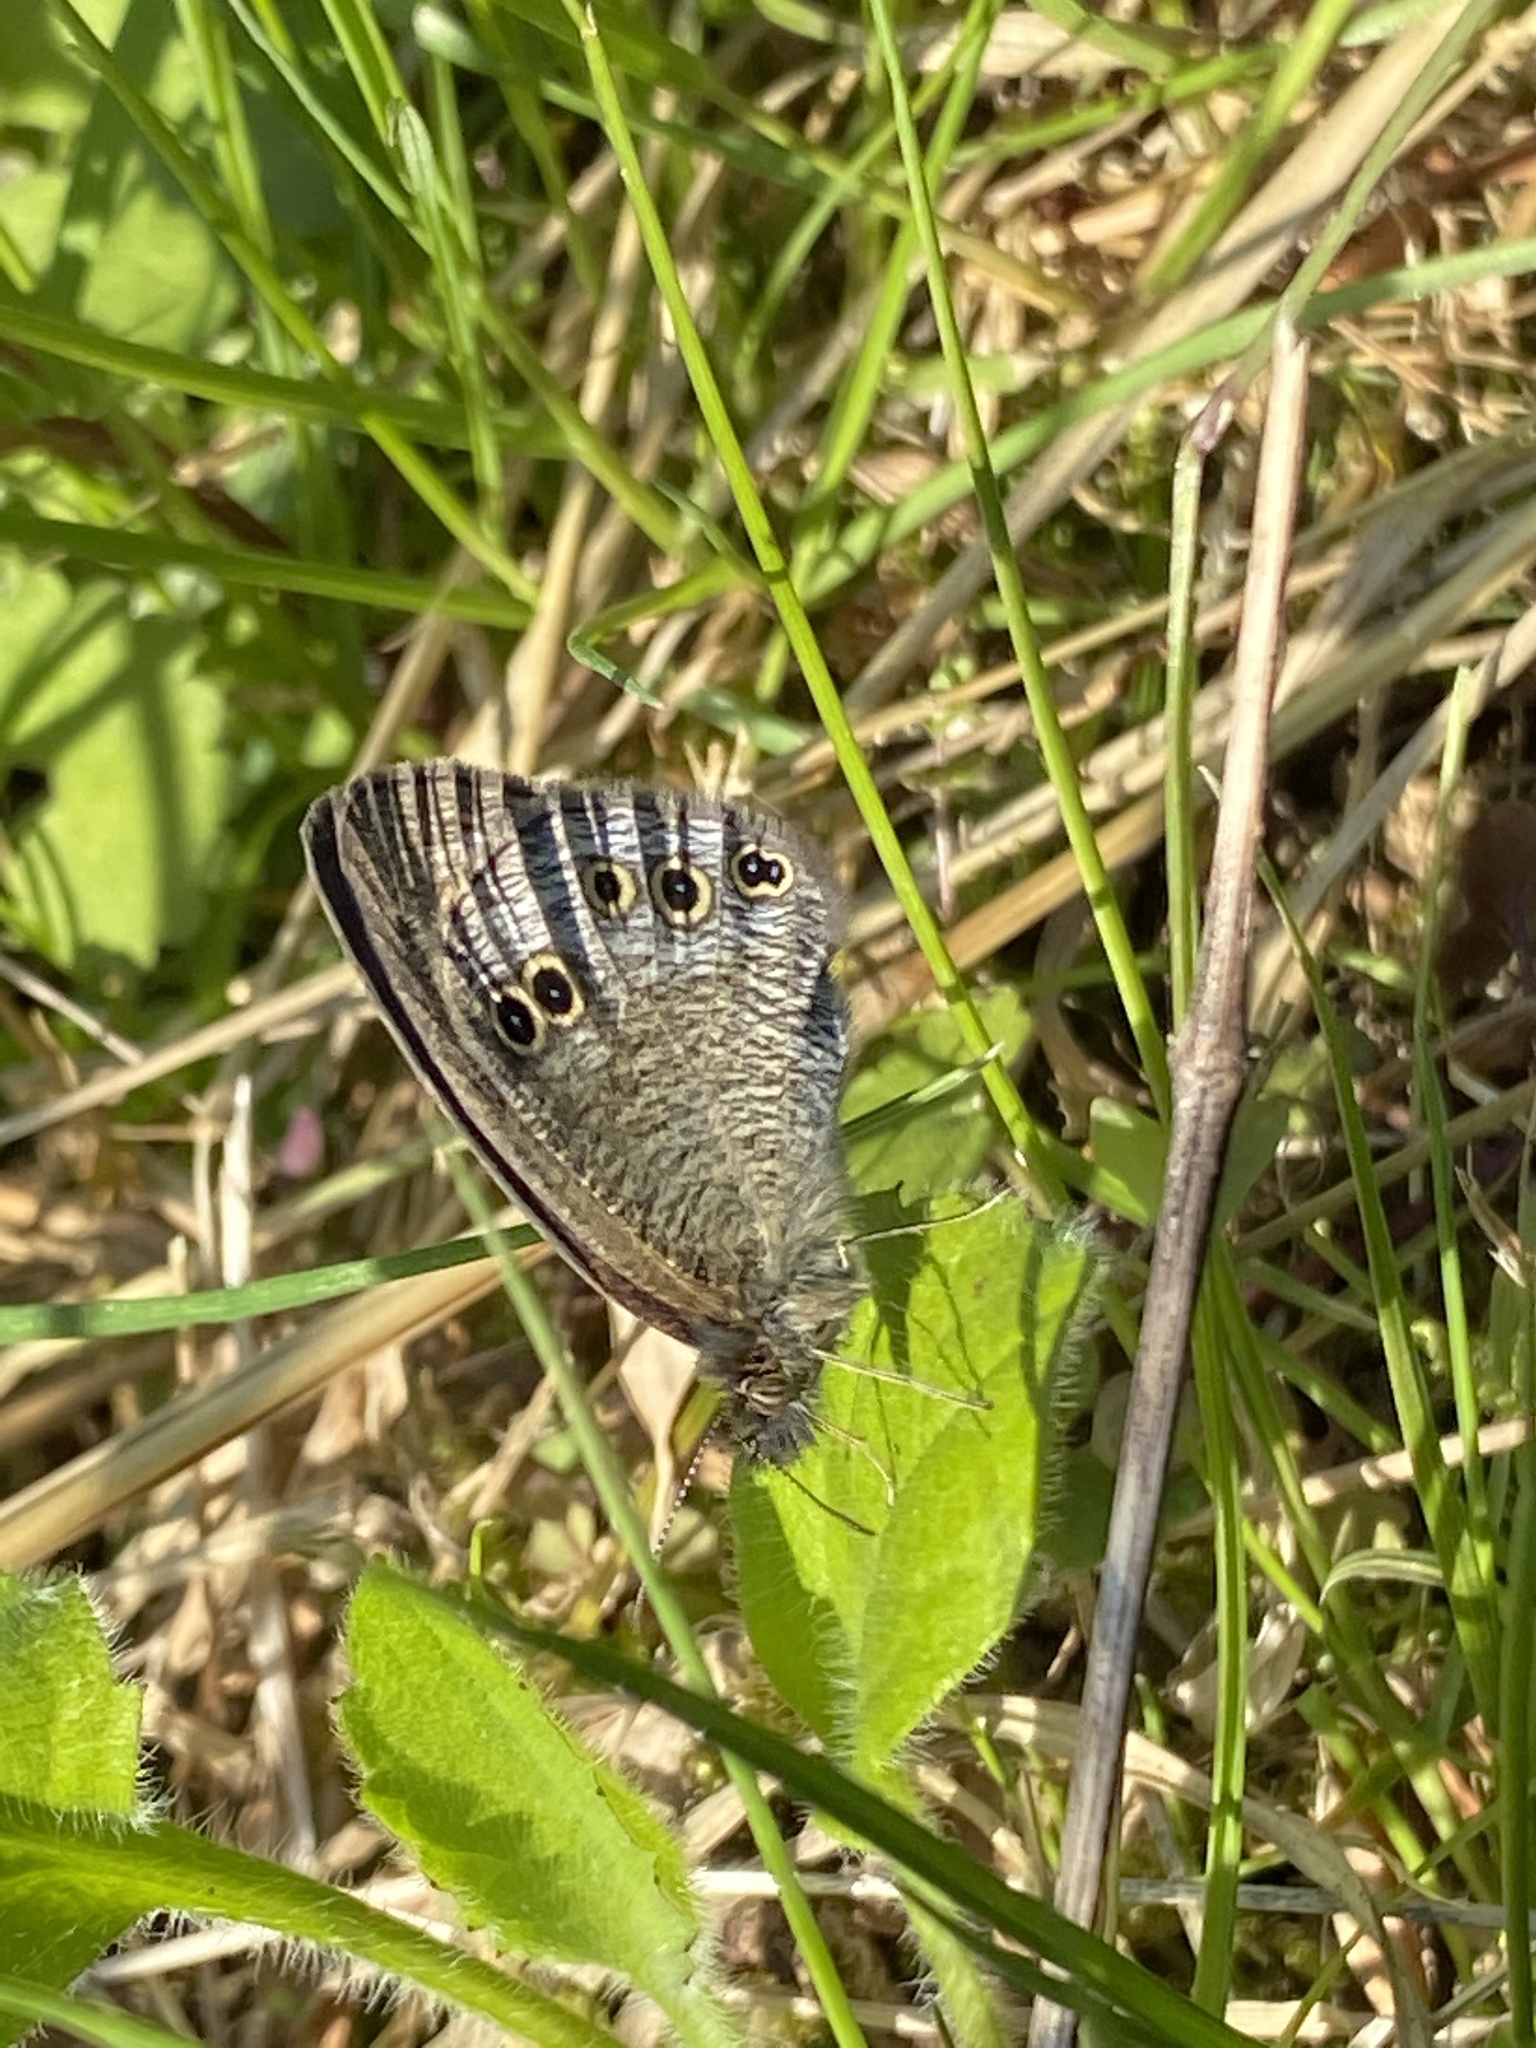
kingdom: Animalia
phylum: Arthropoda
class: Insecta
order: Lepidoptera
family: Nymphalidae
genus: Ypthima
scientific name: Ypthima argus
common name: Common fivering
